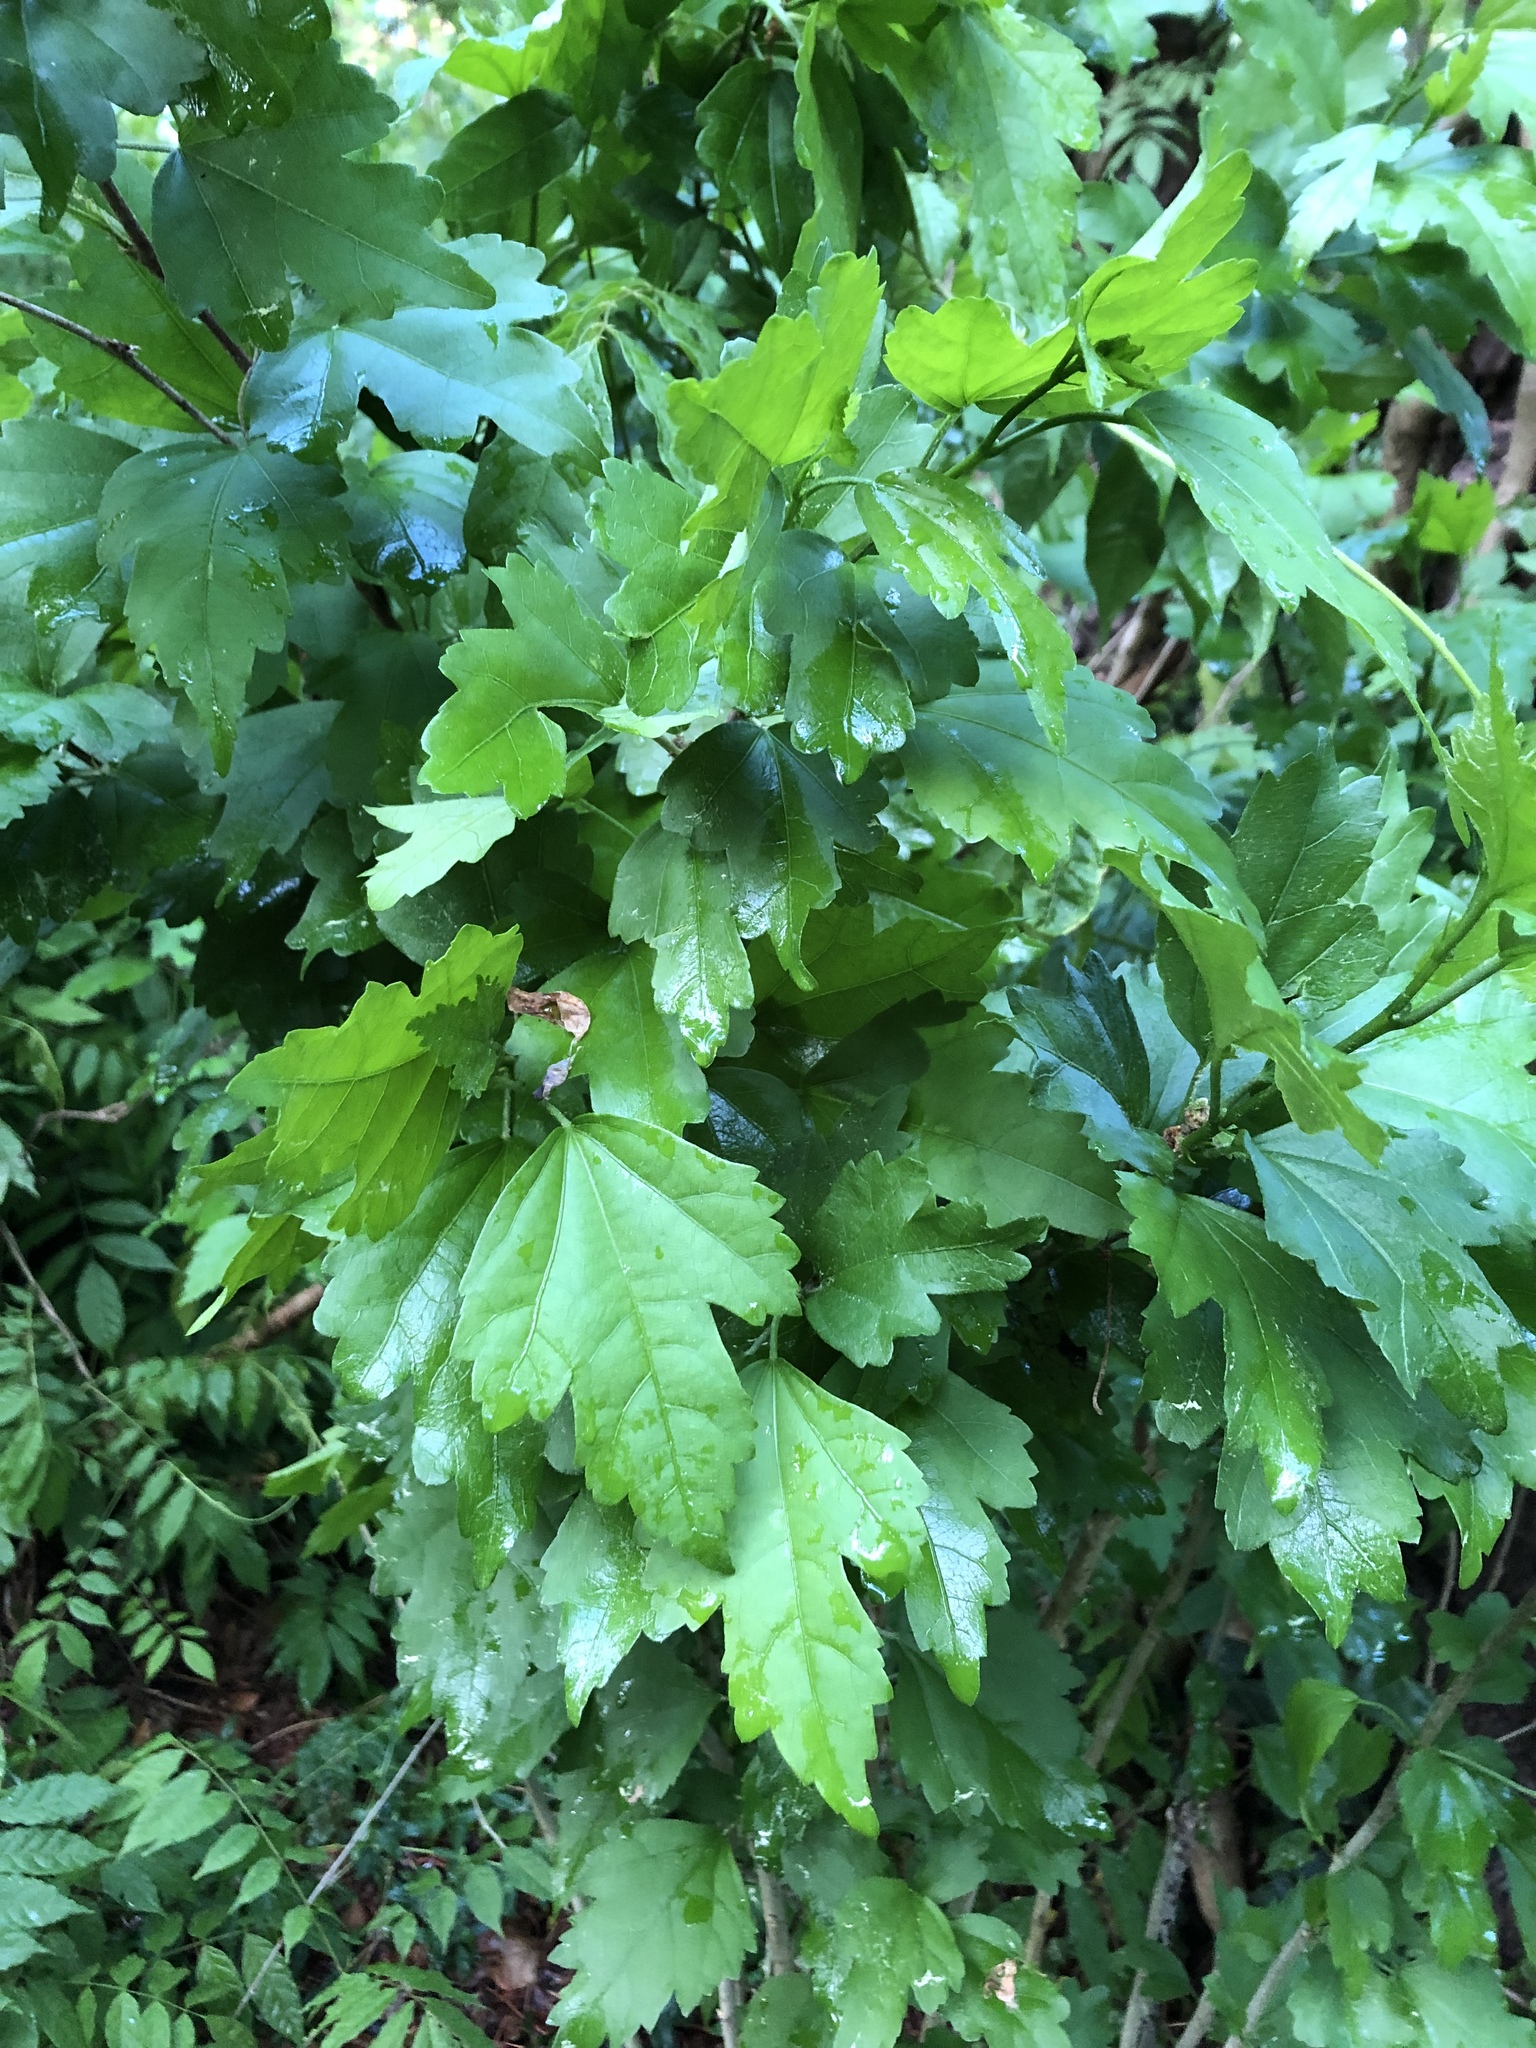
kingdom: Plantae
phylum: Tracheophyta
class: Magnoliopsida
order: Malvales
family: Malvaceae
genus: Hibiscus
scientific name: Hibiscus syriacus
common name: Syrian ketmia
